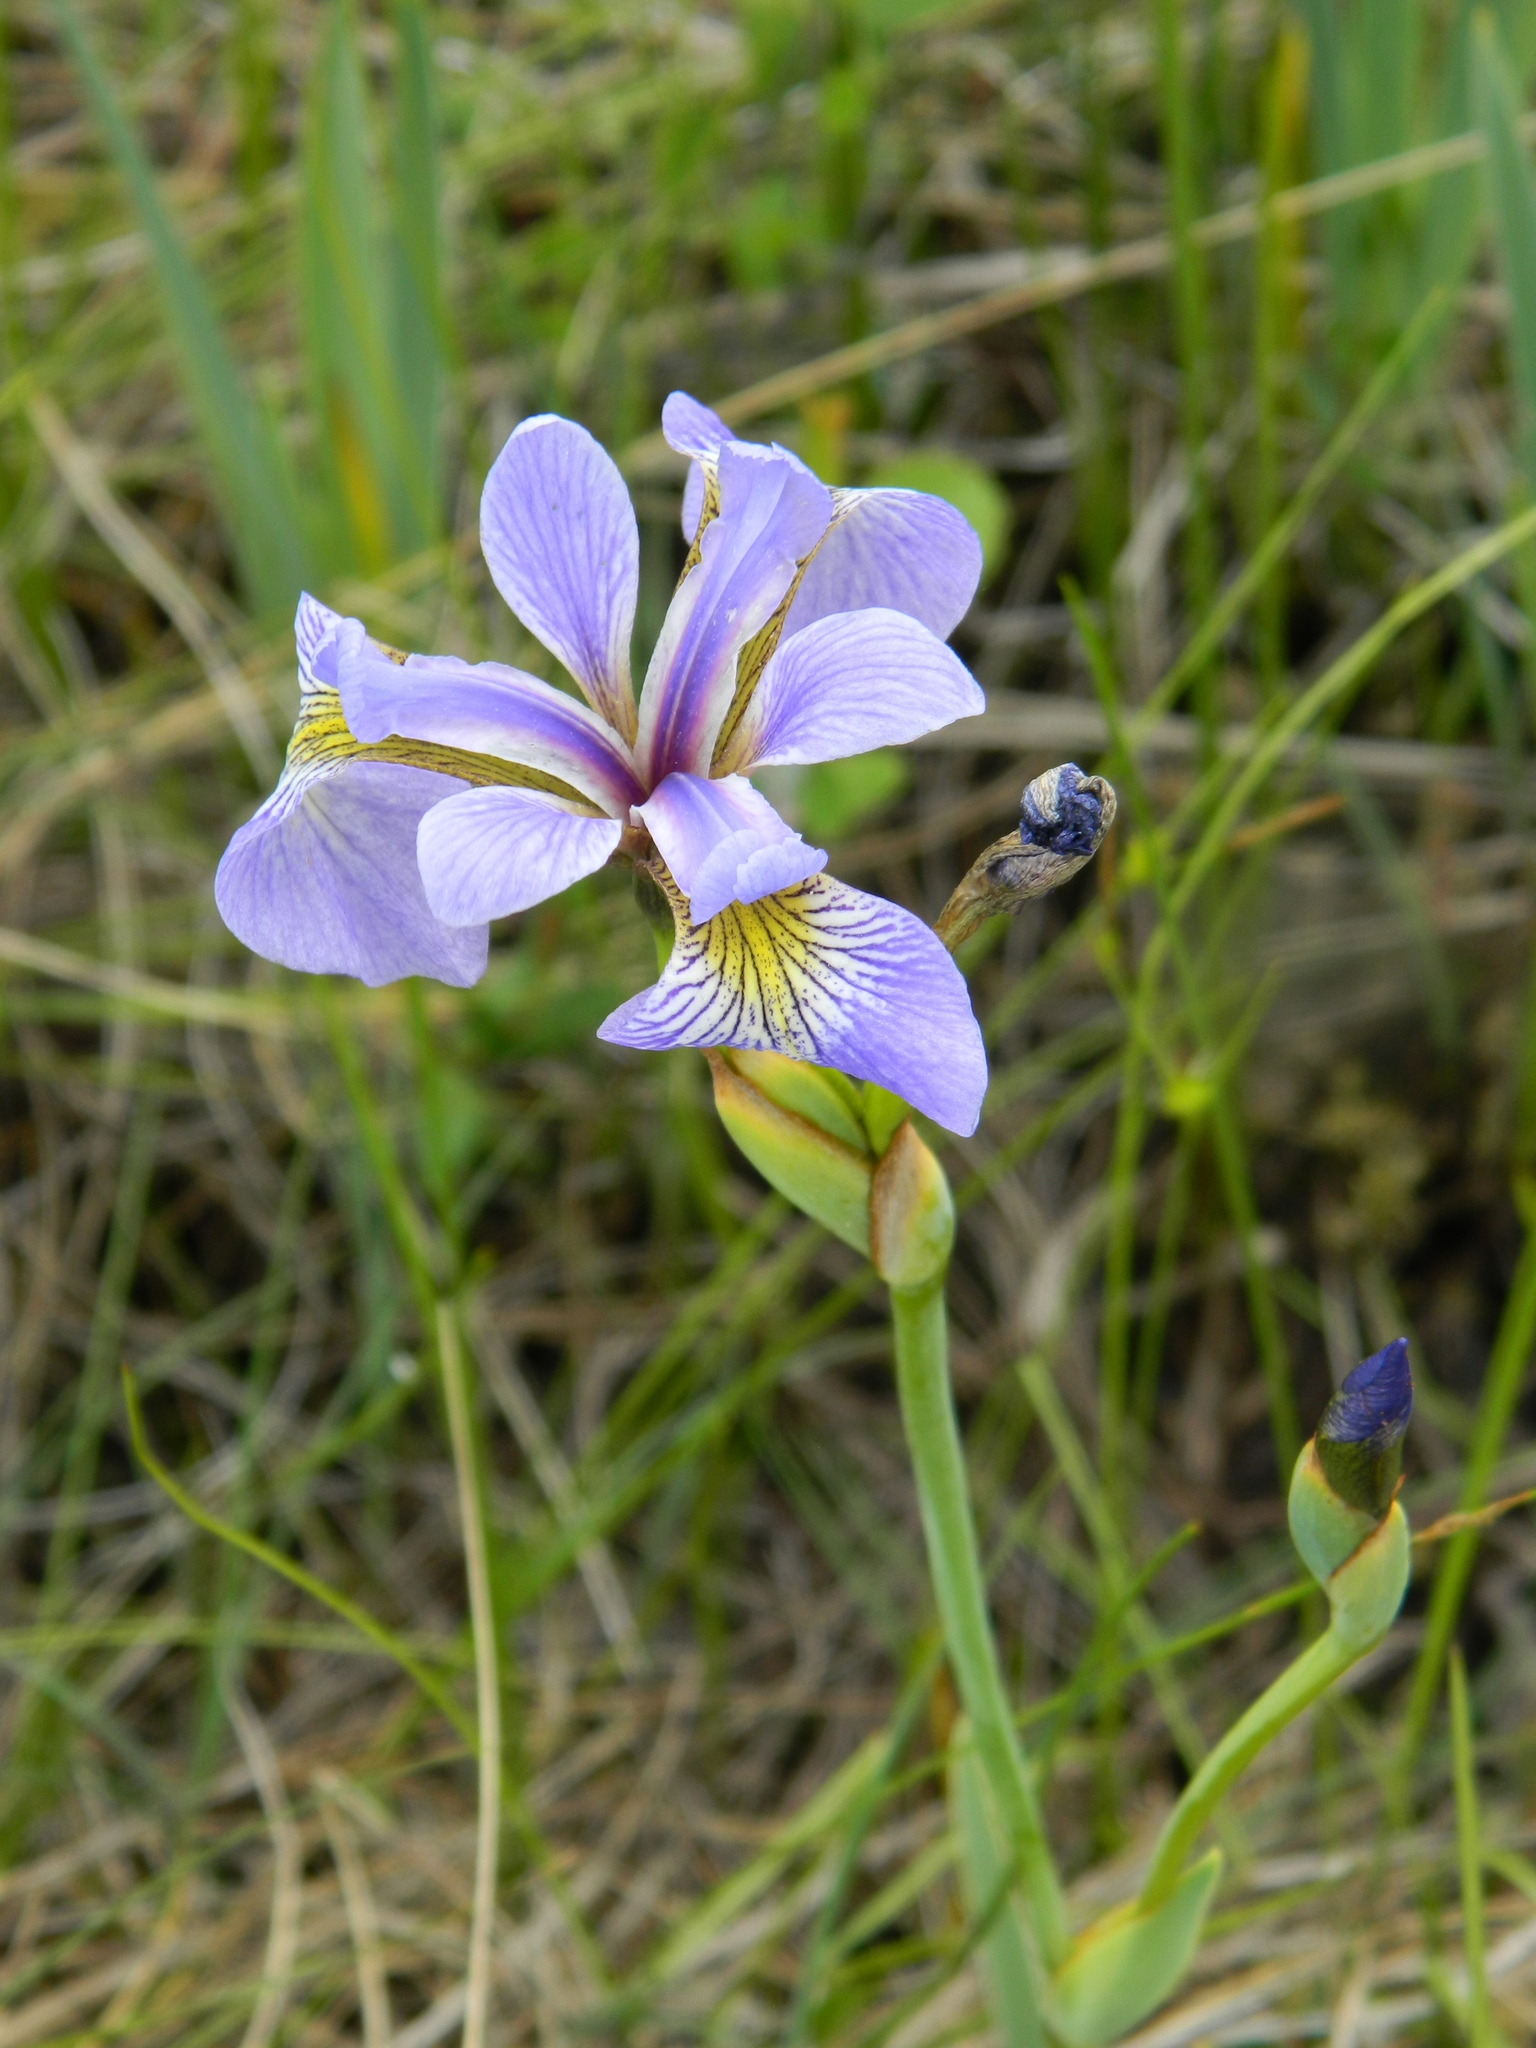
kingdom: Plantae
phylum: Tracheophyta
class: Liliopsida
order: Asparagales
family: Iridaceae
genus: Iris
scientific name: Iris versicolor
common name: Purple iris
